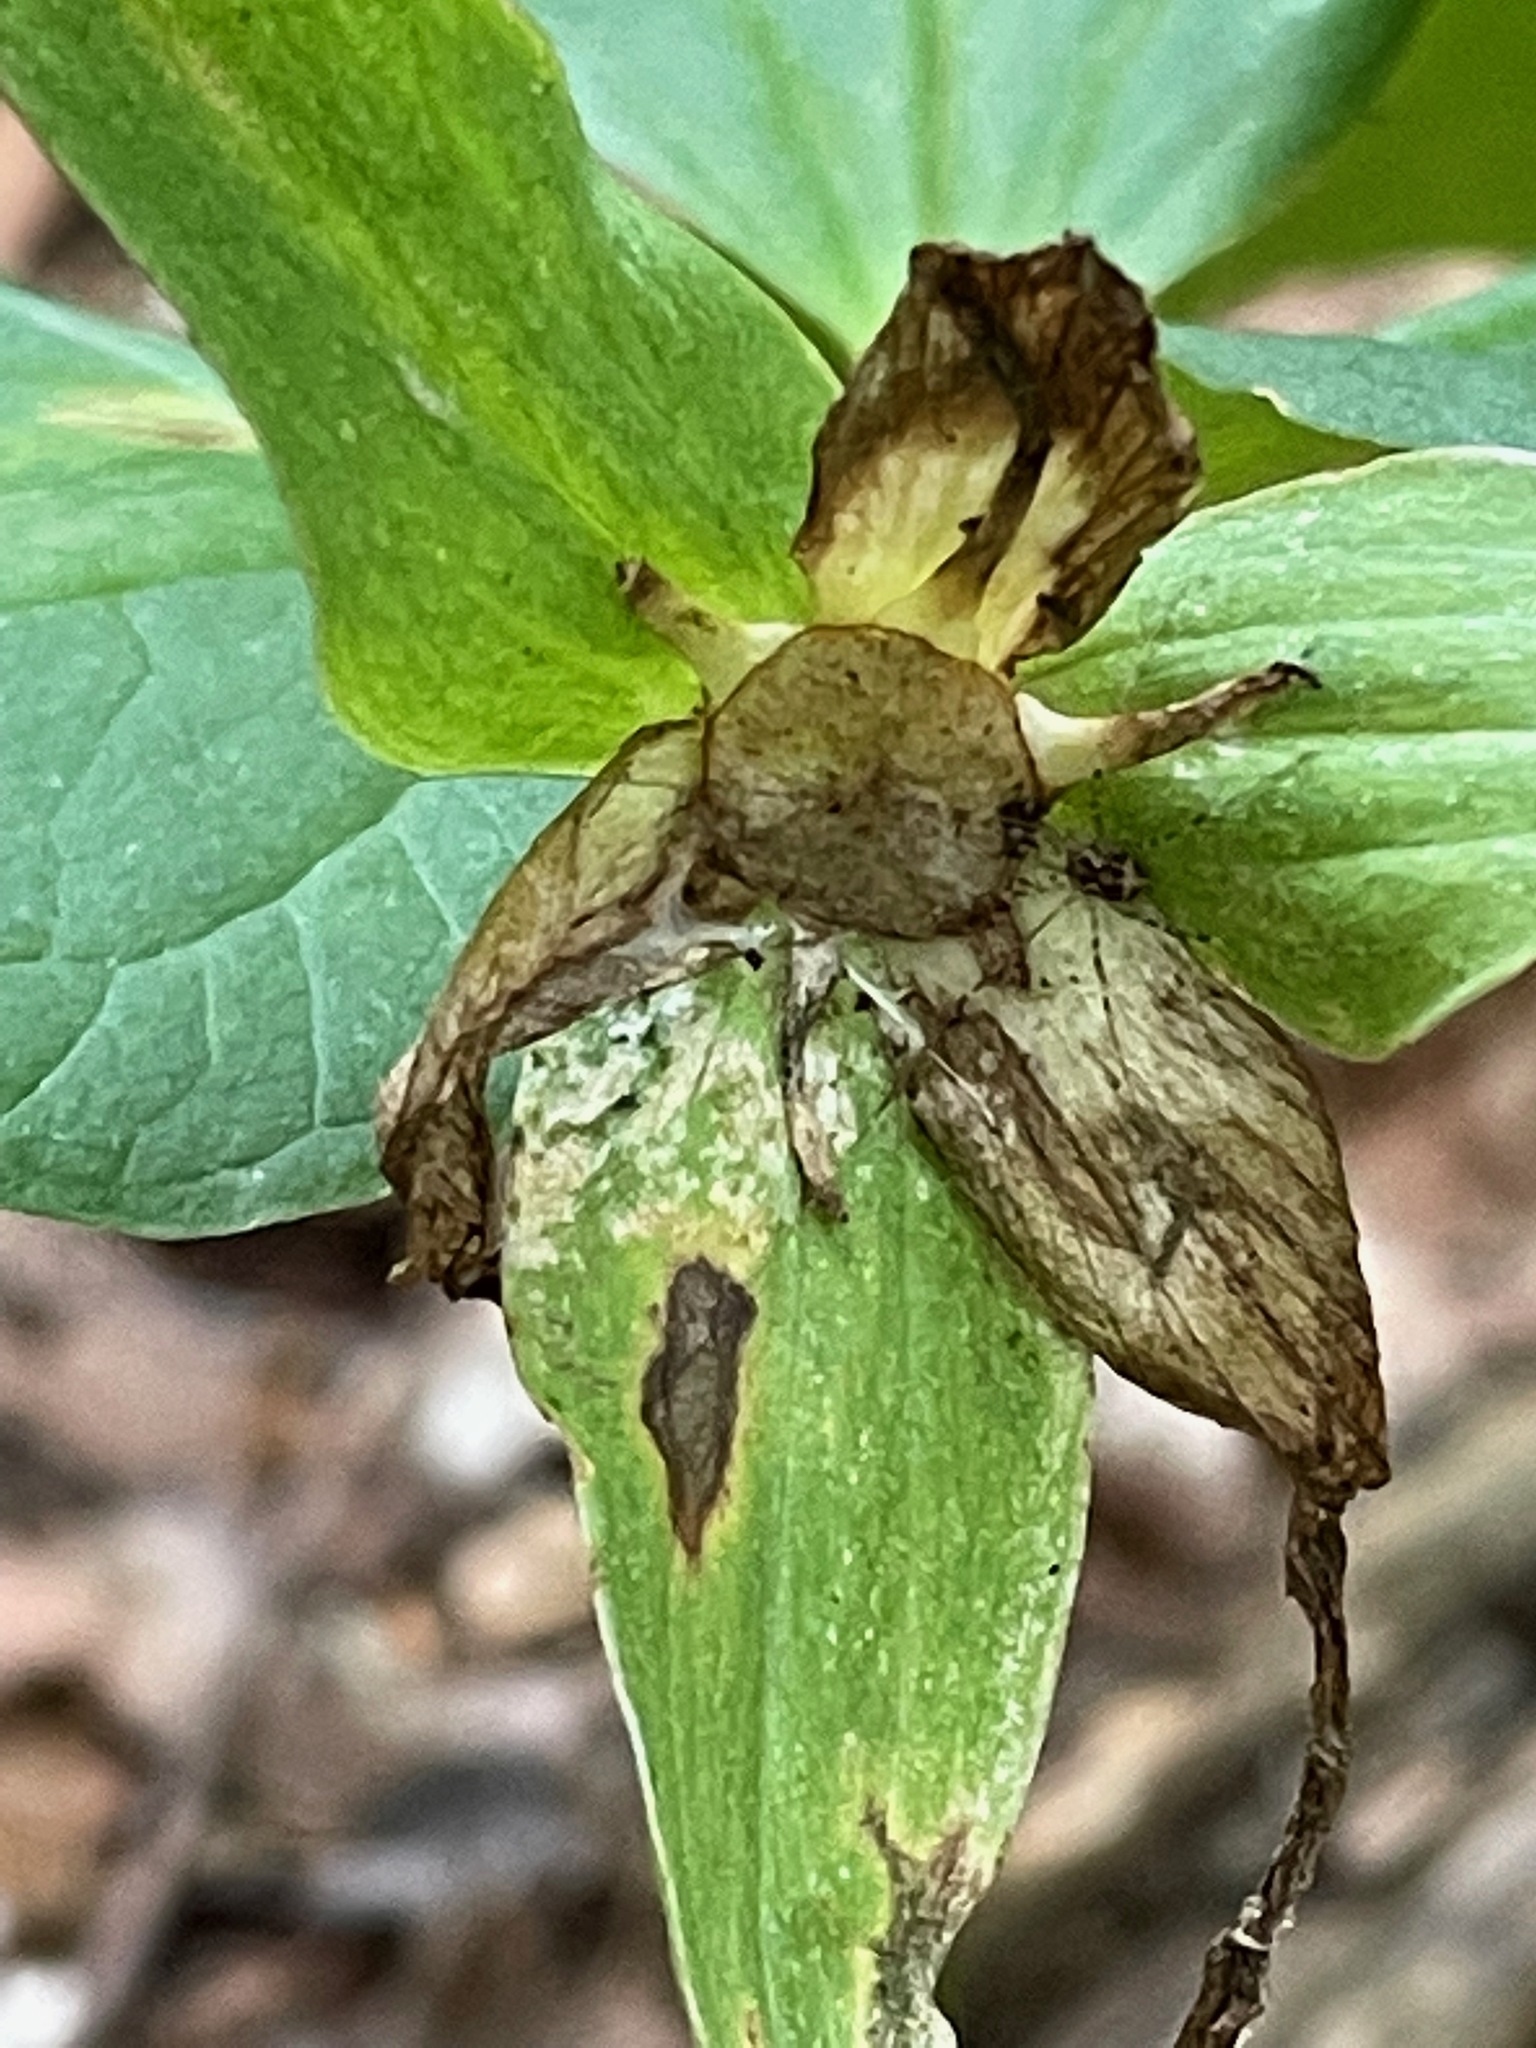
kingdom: Plantae
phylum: Tracheophyta
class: Liliopsida
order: Liliales
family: Melanthiaceae
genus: Trillium
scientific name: Trillium grandiflorum
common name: Great white trillium
